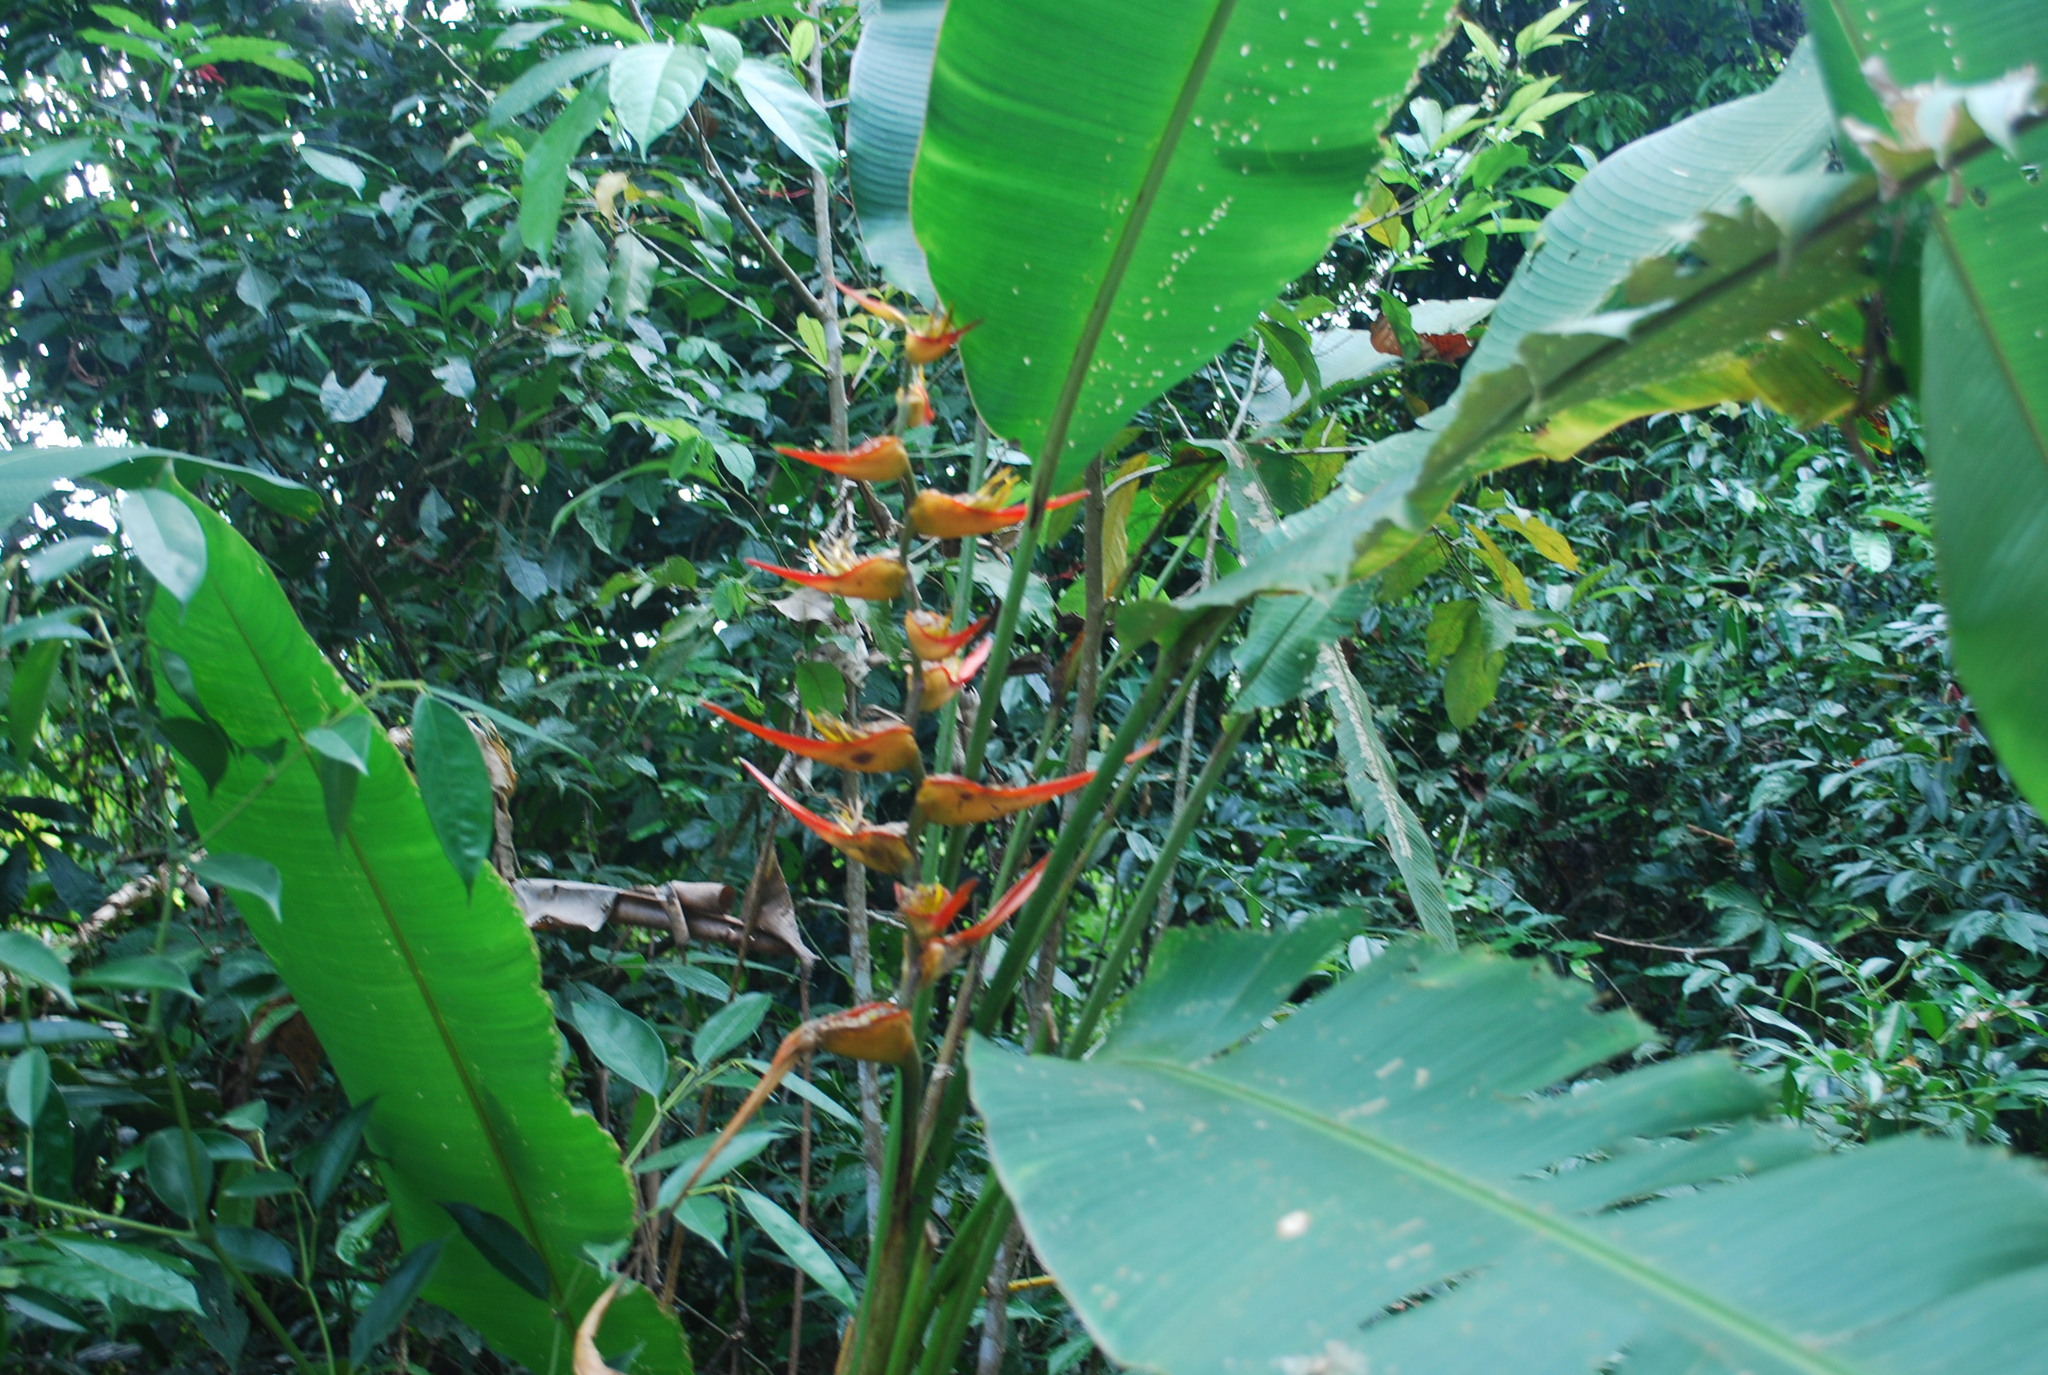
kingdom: Plantae
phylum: Tracheophyta
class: Liliopsida
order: Zingiberales
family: Heliconiaceae
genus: Heliconia
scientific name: Heliconia latispatha
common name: Expanded lobsterclaw
